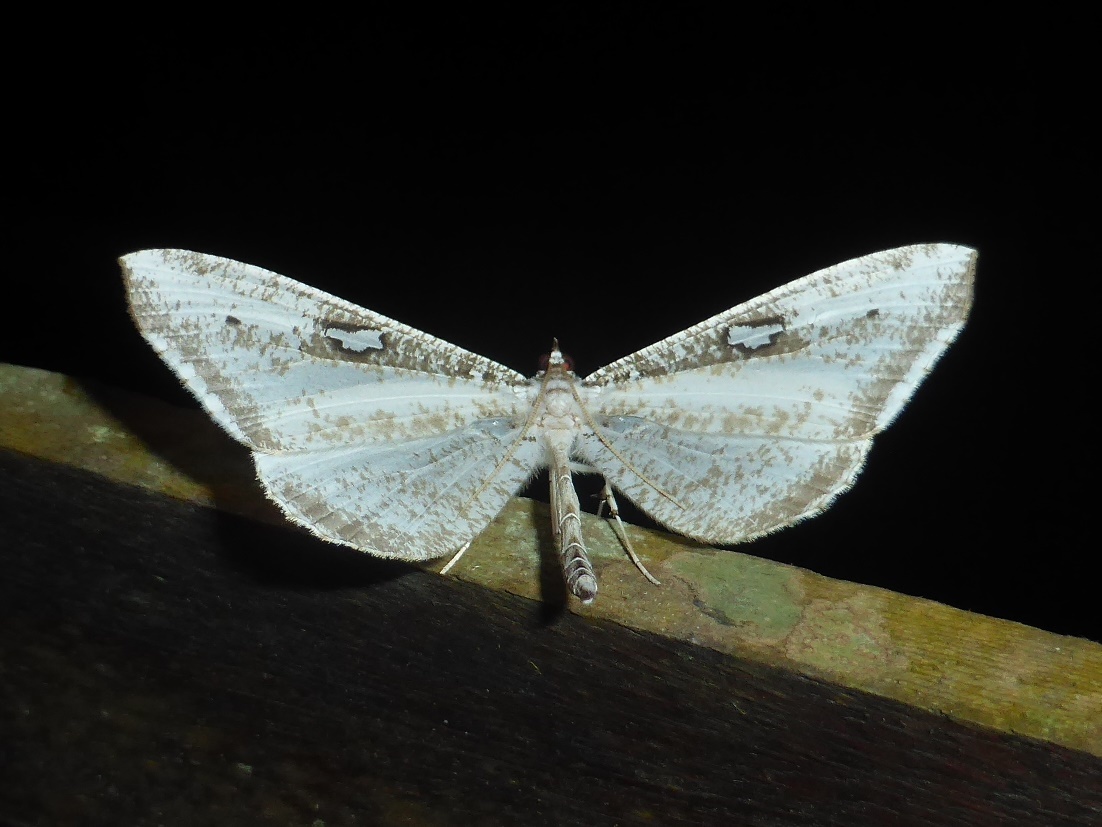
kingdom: Animalia
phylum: Arthropoda
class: Insecta
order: Lepidoptera
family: Hedylidae
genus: Macrosoma
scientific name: Macrosoma tipulata
